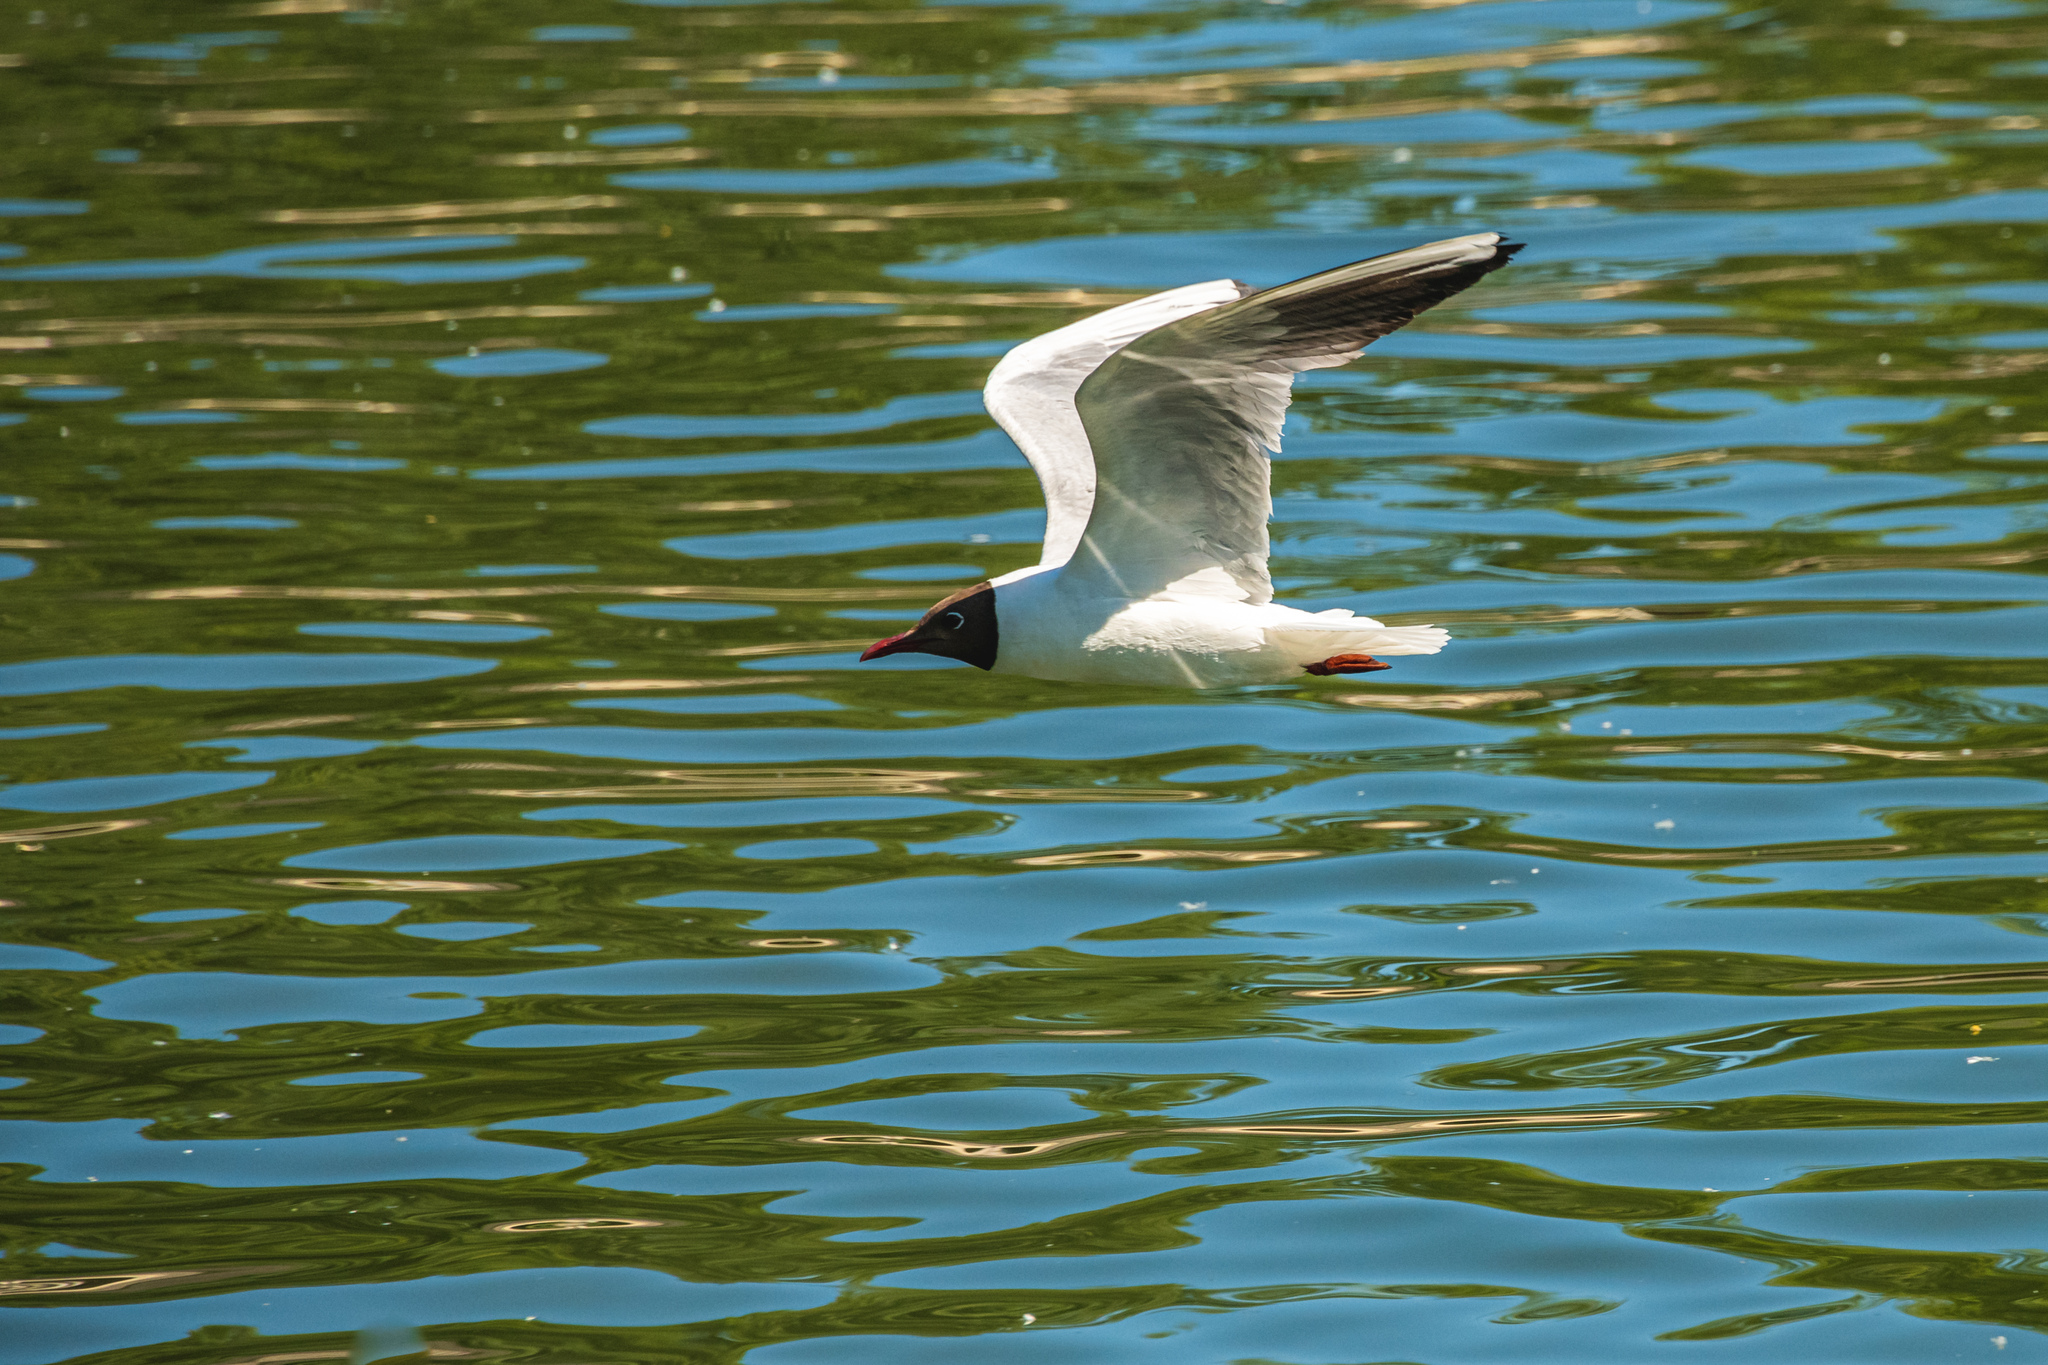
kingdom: Animalia
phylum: Chordata
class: Aves
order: Charadriiformes
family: Laridae
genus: Chroicocephalus
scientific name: Chroicocephalus ridibundus
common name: Black-headed gull
